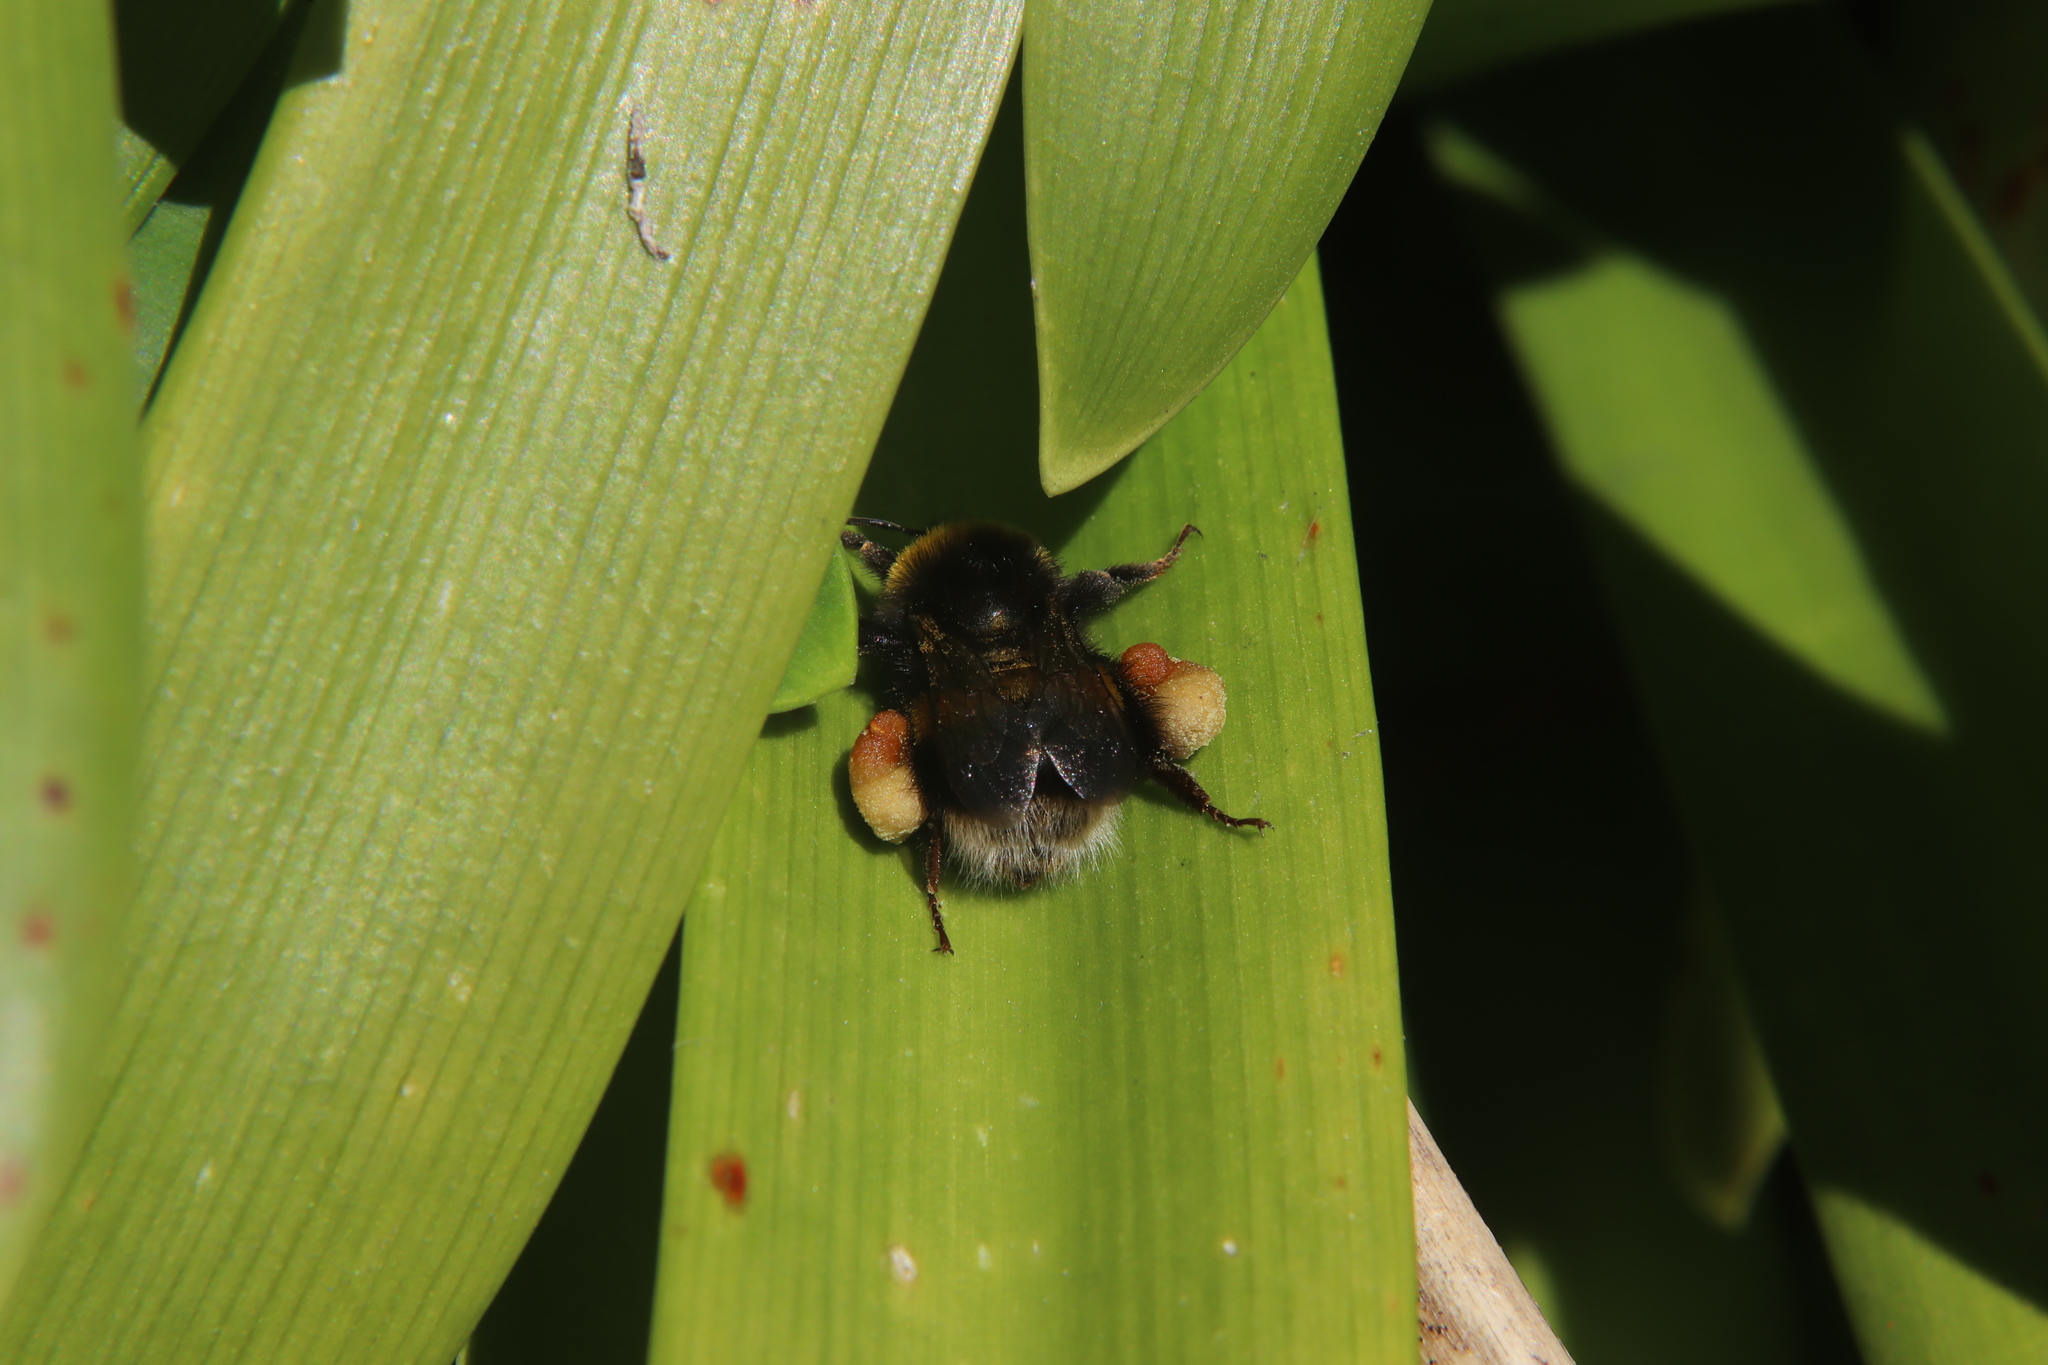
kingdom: Animalia
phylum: Arthropoda
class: Insecta
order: Hymenoptera
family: Apidae
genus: Bombus
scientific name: Bombus terrestris
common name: Buff-tailed bumblebee
